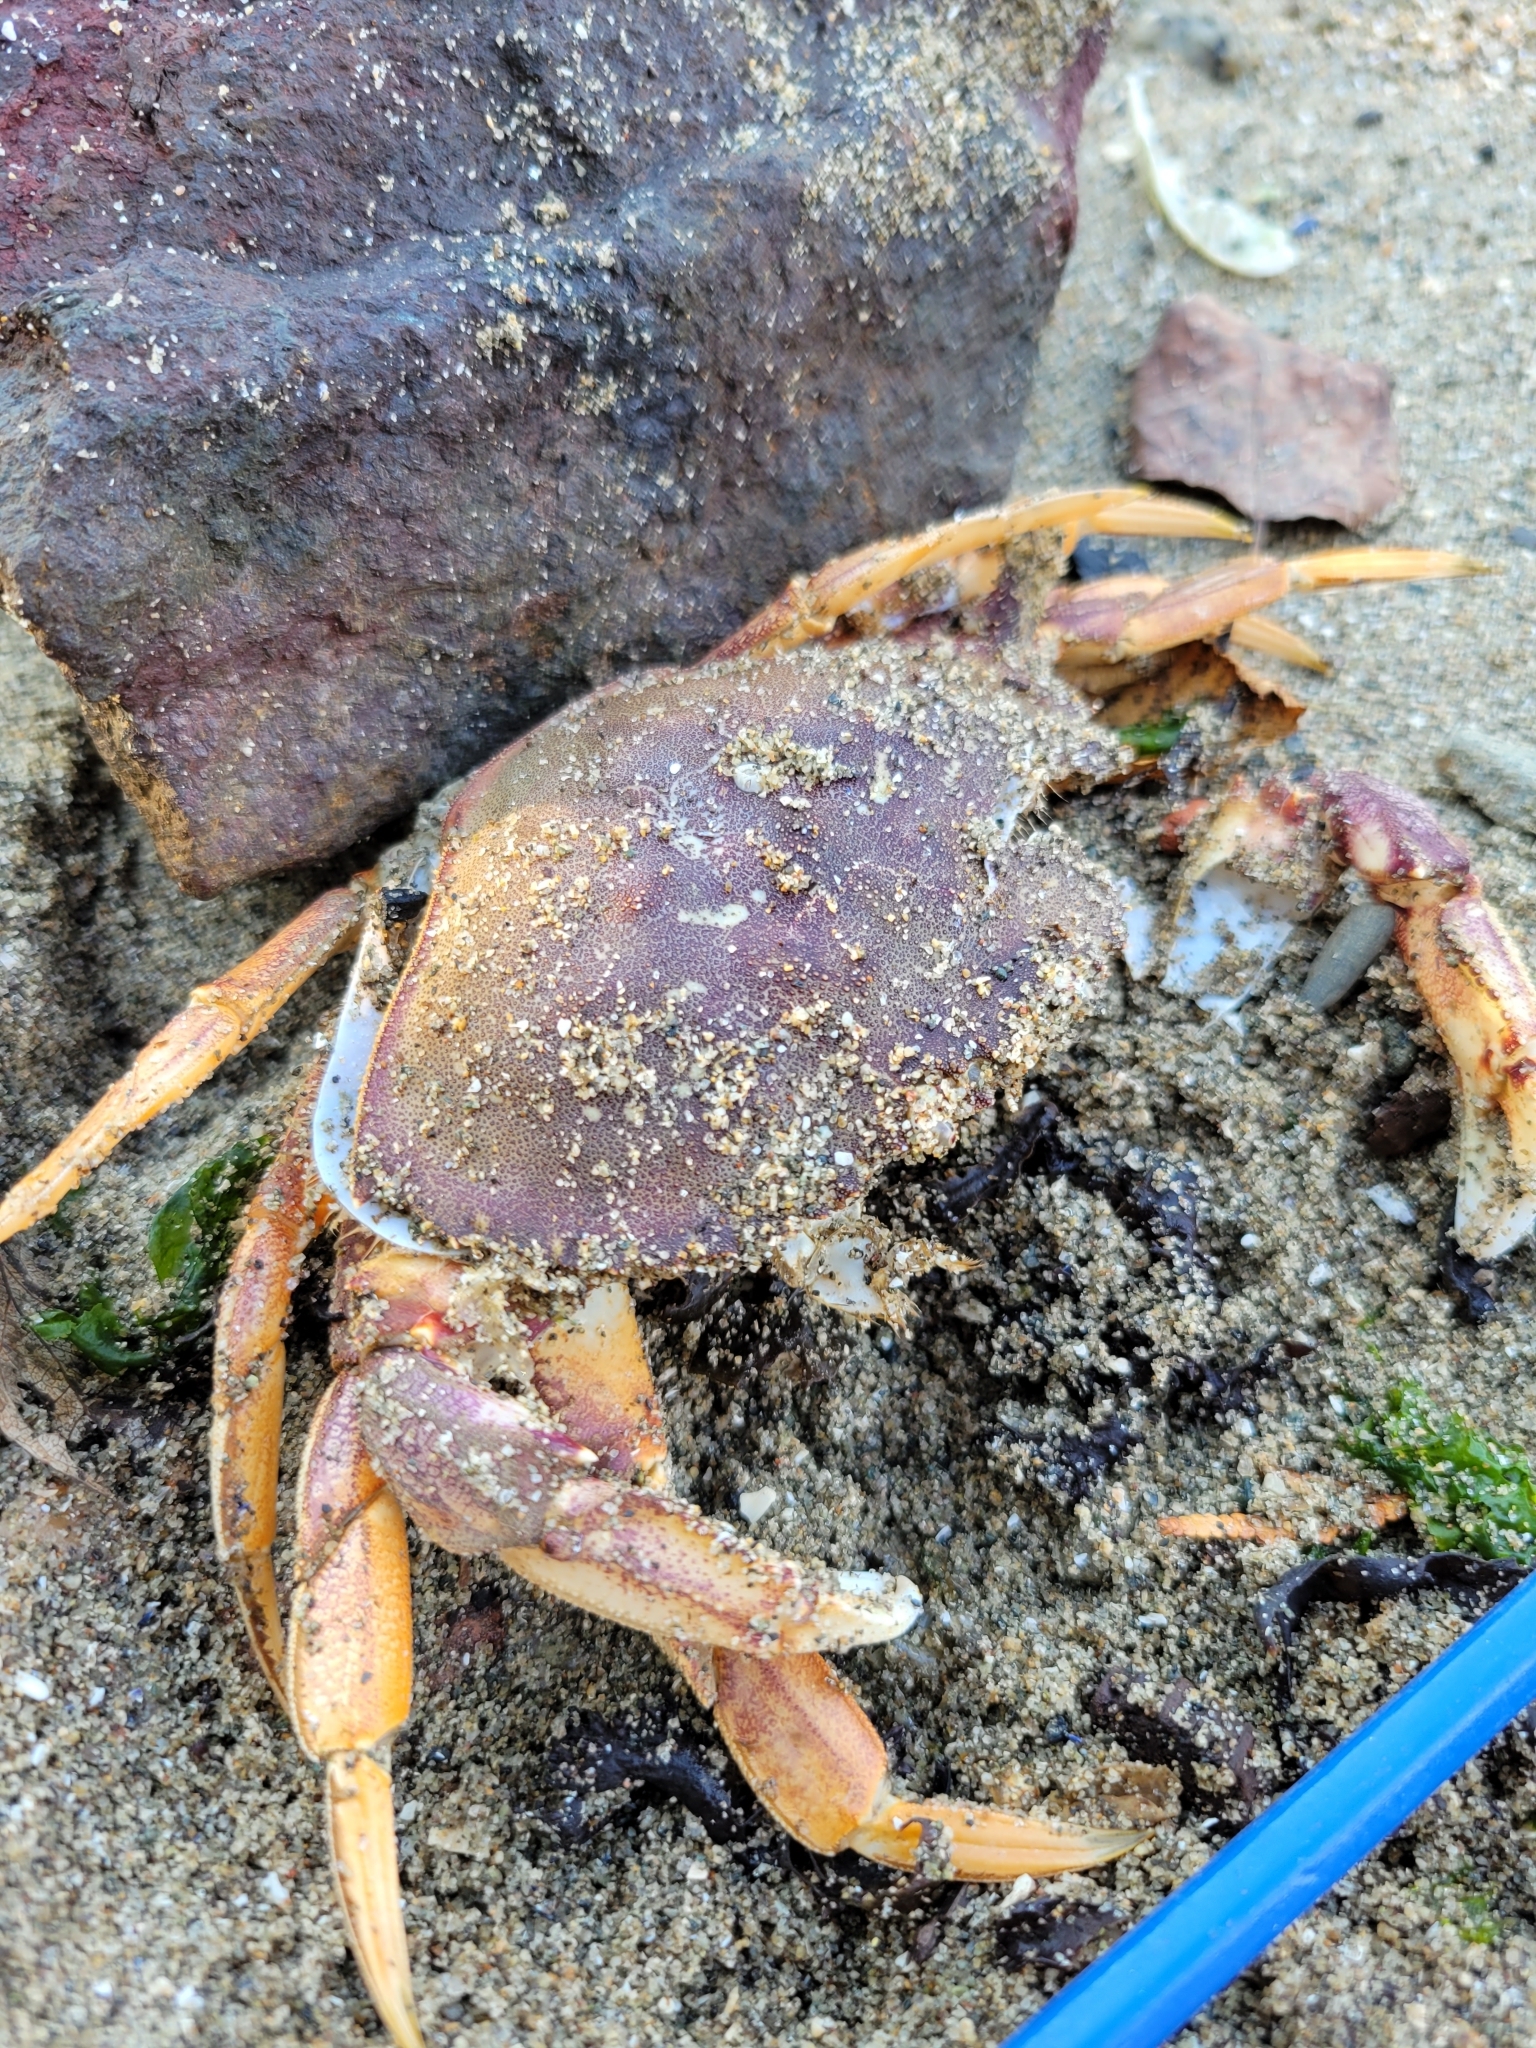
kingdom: Animalia
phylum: Arthropoda
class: Malacostraca
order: Decapoda
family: Cancridae
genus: Metacarcinus
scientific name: Metacarcinus magister
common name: Californian crab
